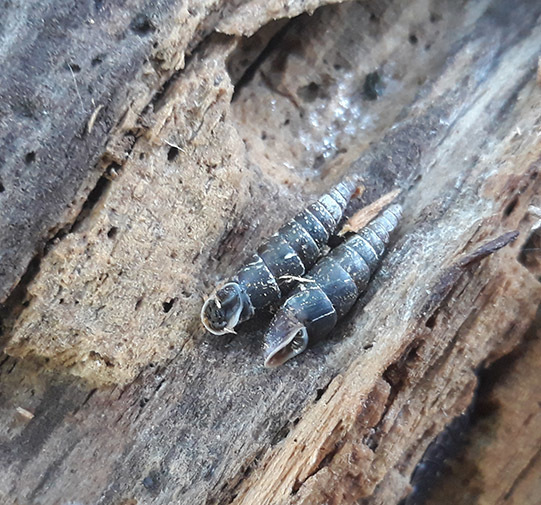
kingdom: Animalia
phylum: Mollusca
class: Gastropoda
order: Stylommatophora
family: Clausiliidae
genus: Cochlodina
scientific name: Cochlodina laminata
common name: Plaited door snail
